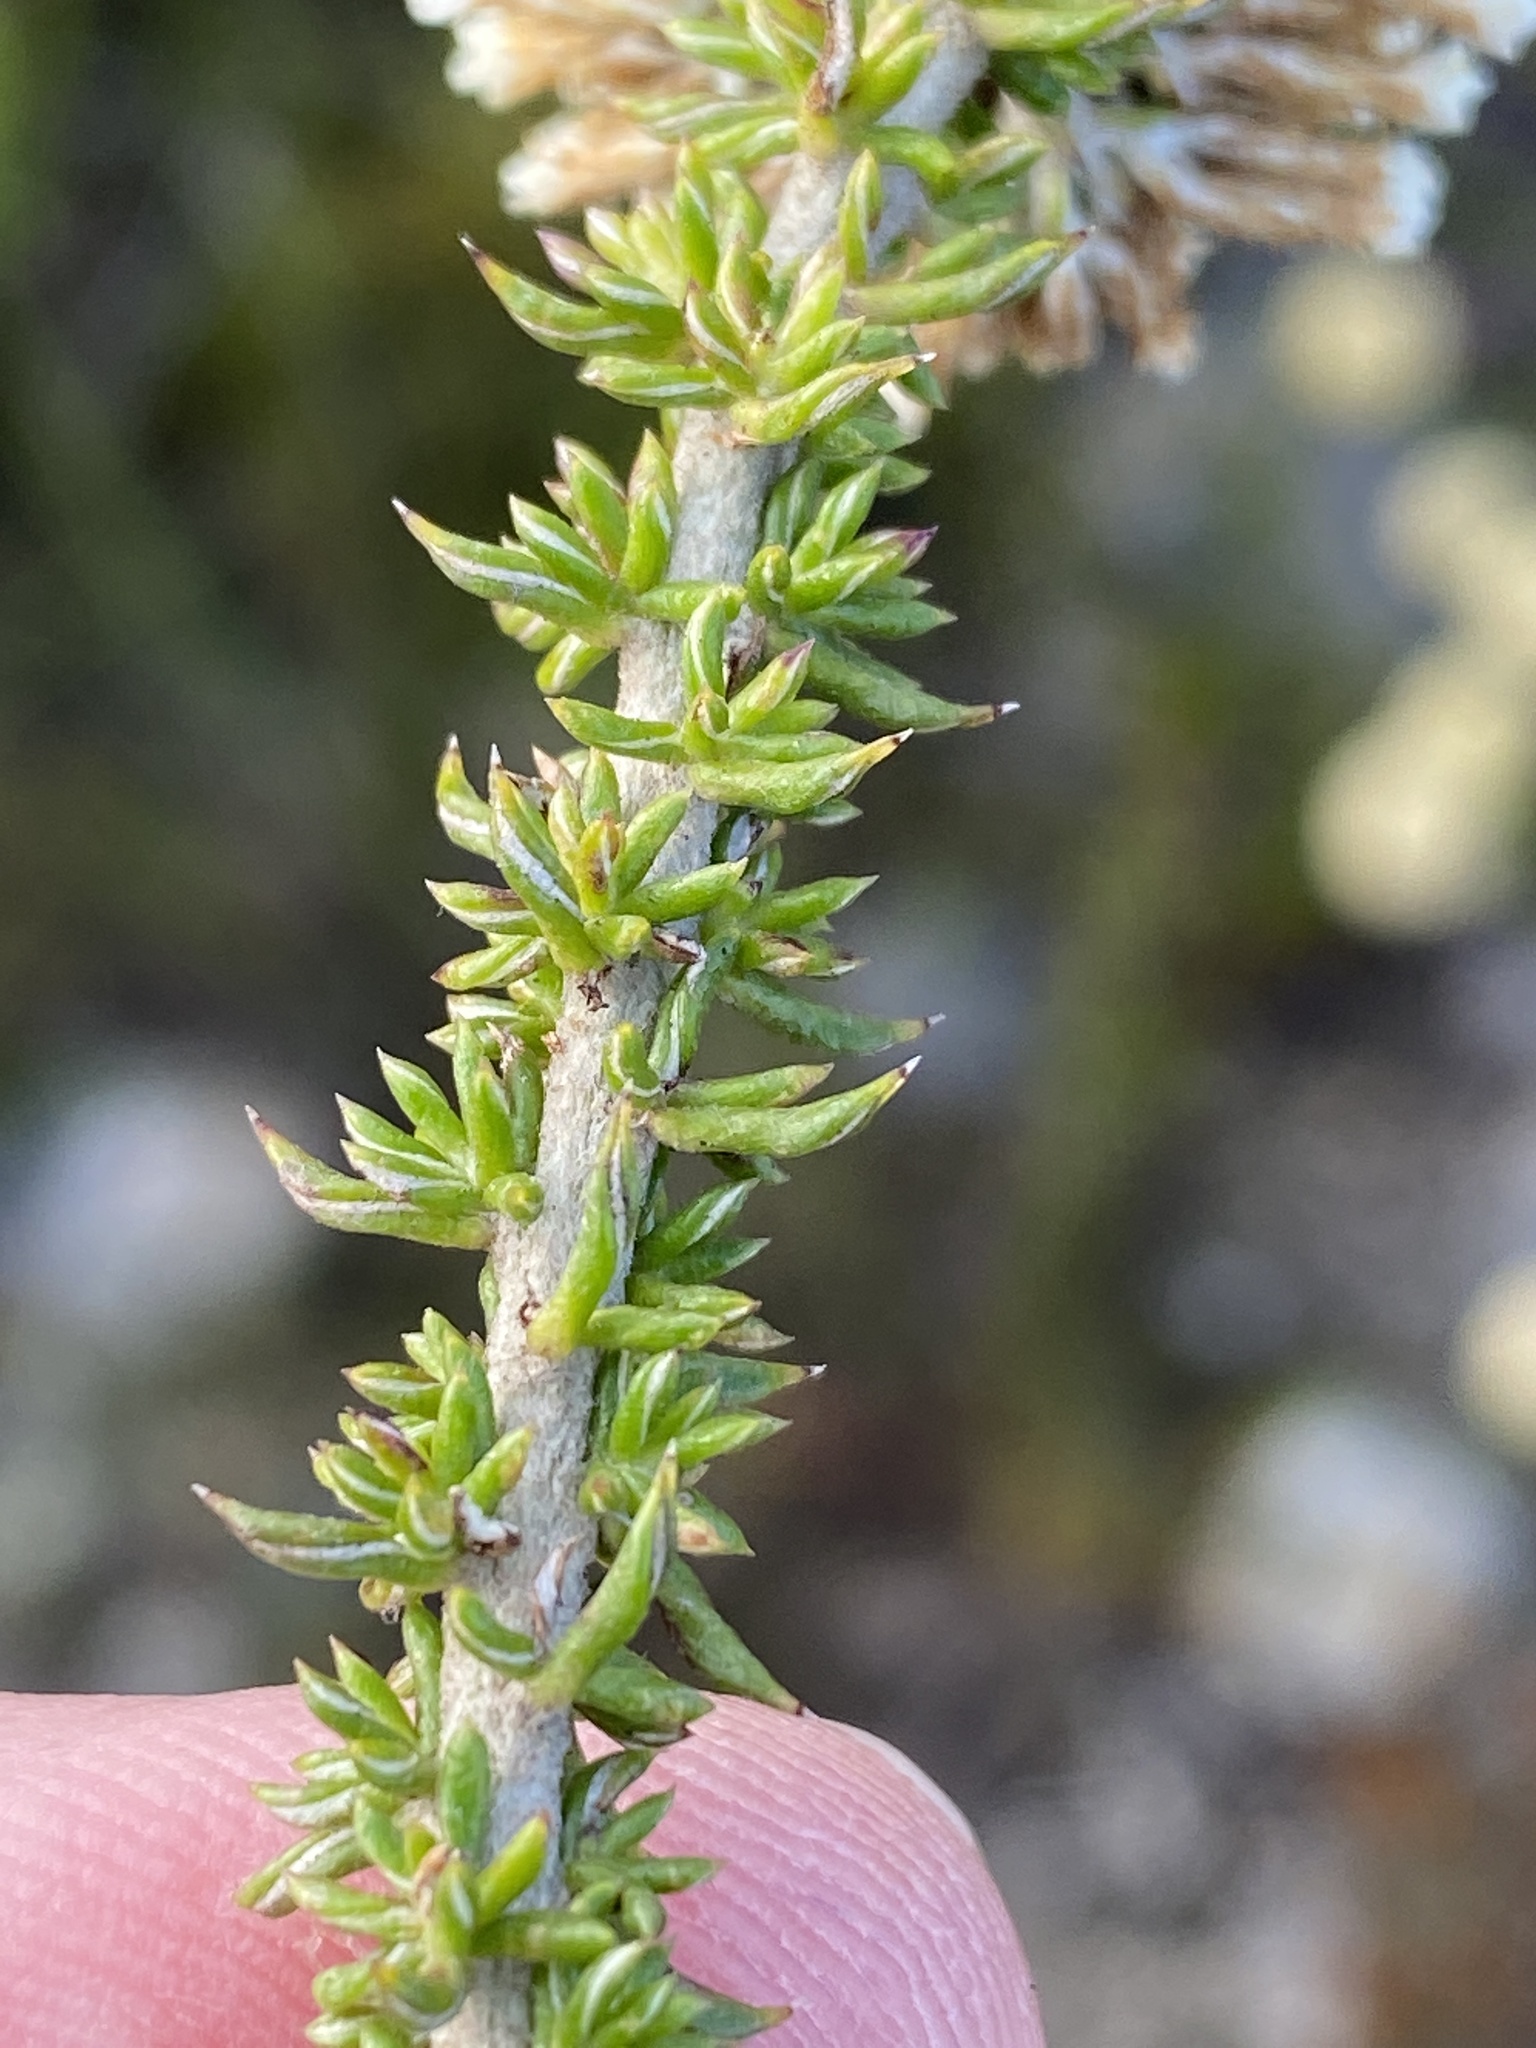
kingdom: Plantae
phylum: Tracheophyta
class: Magnoliopsida
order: Asterales
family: Asteraceae
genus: Metalasia
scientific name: Metalasia luteola
